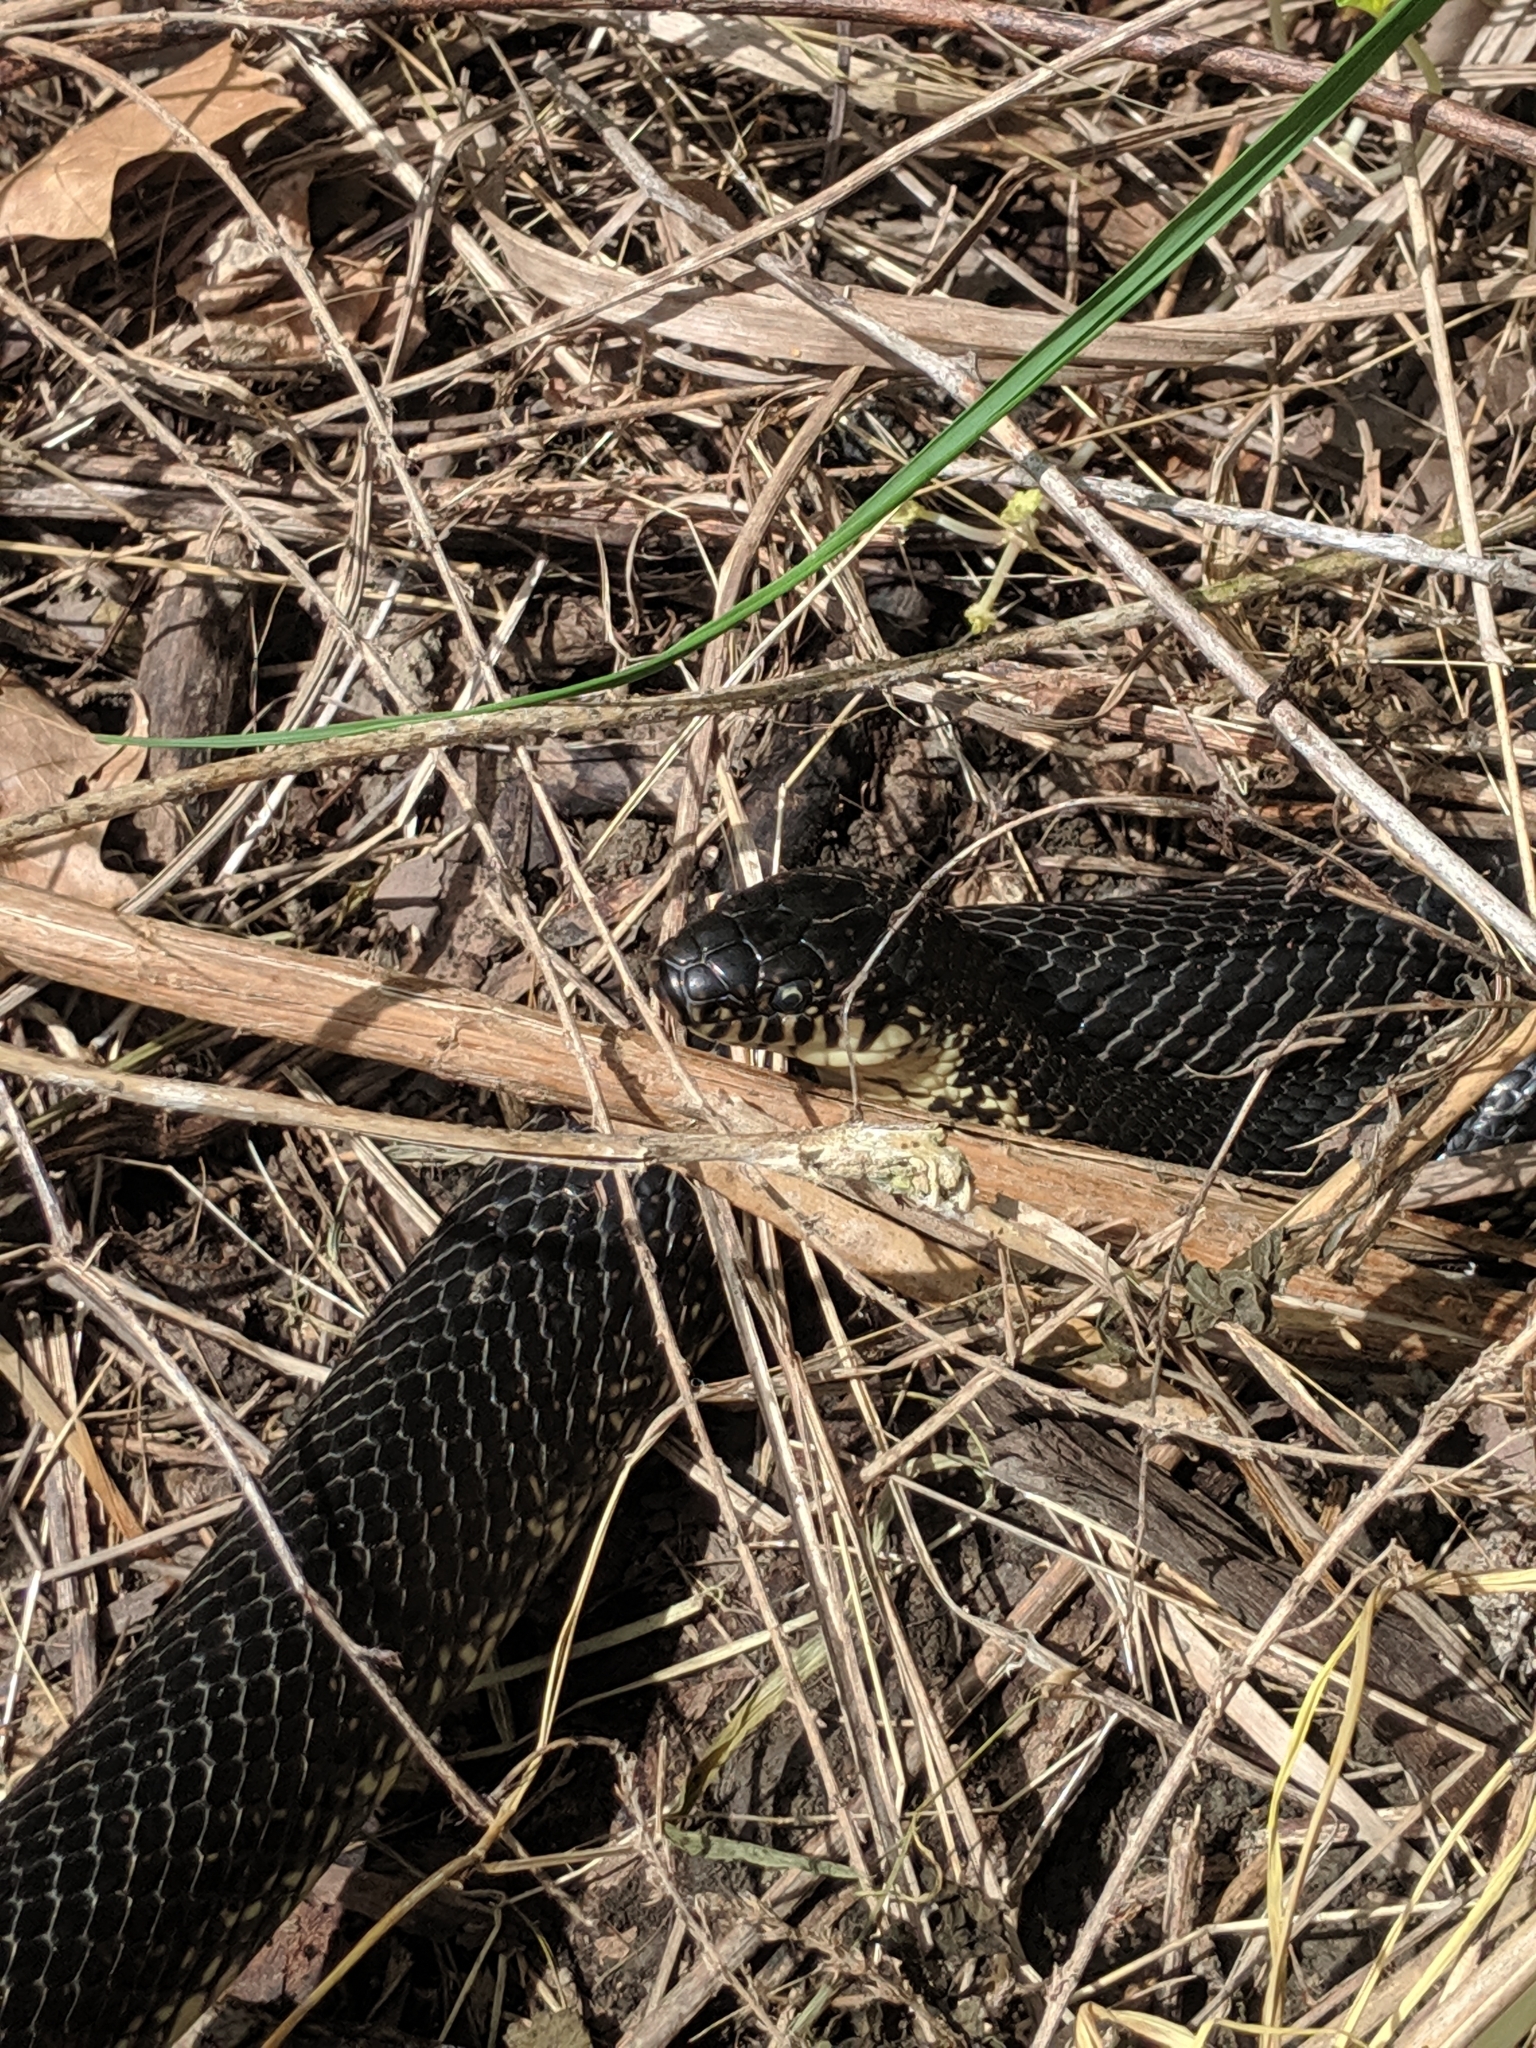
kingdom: Animalia
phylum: Chordata
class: Squamata
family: Colubridae
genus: Lampropeltis
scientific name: Lampropeltis nigra
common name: Black kingsnake
